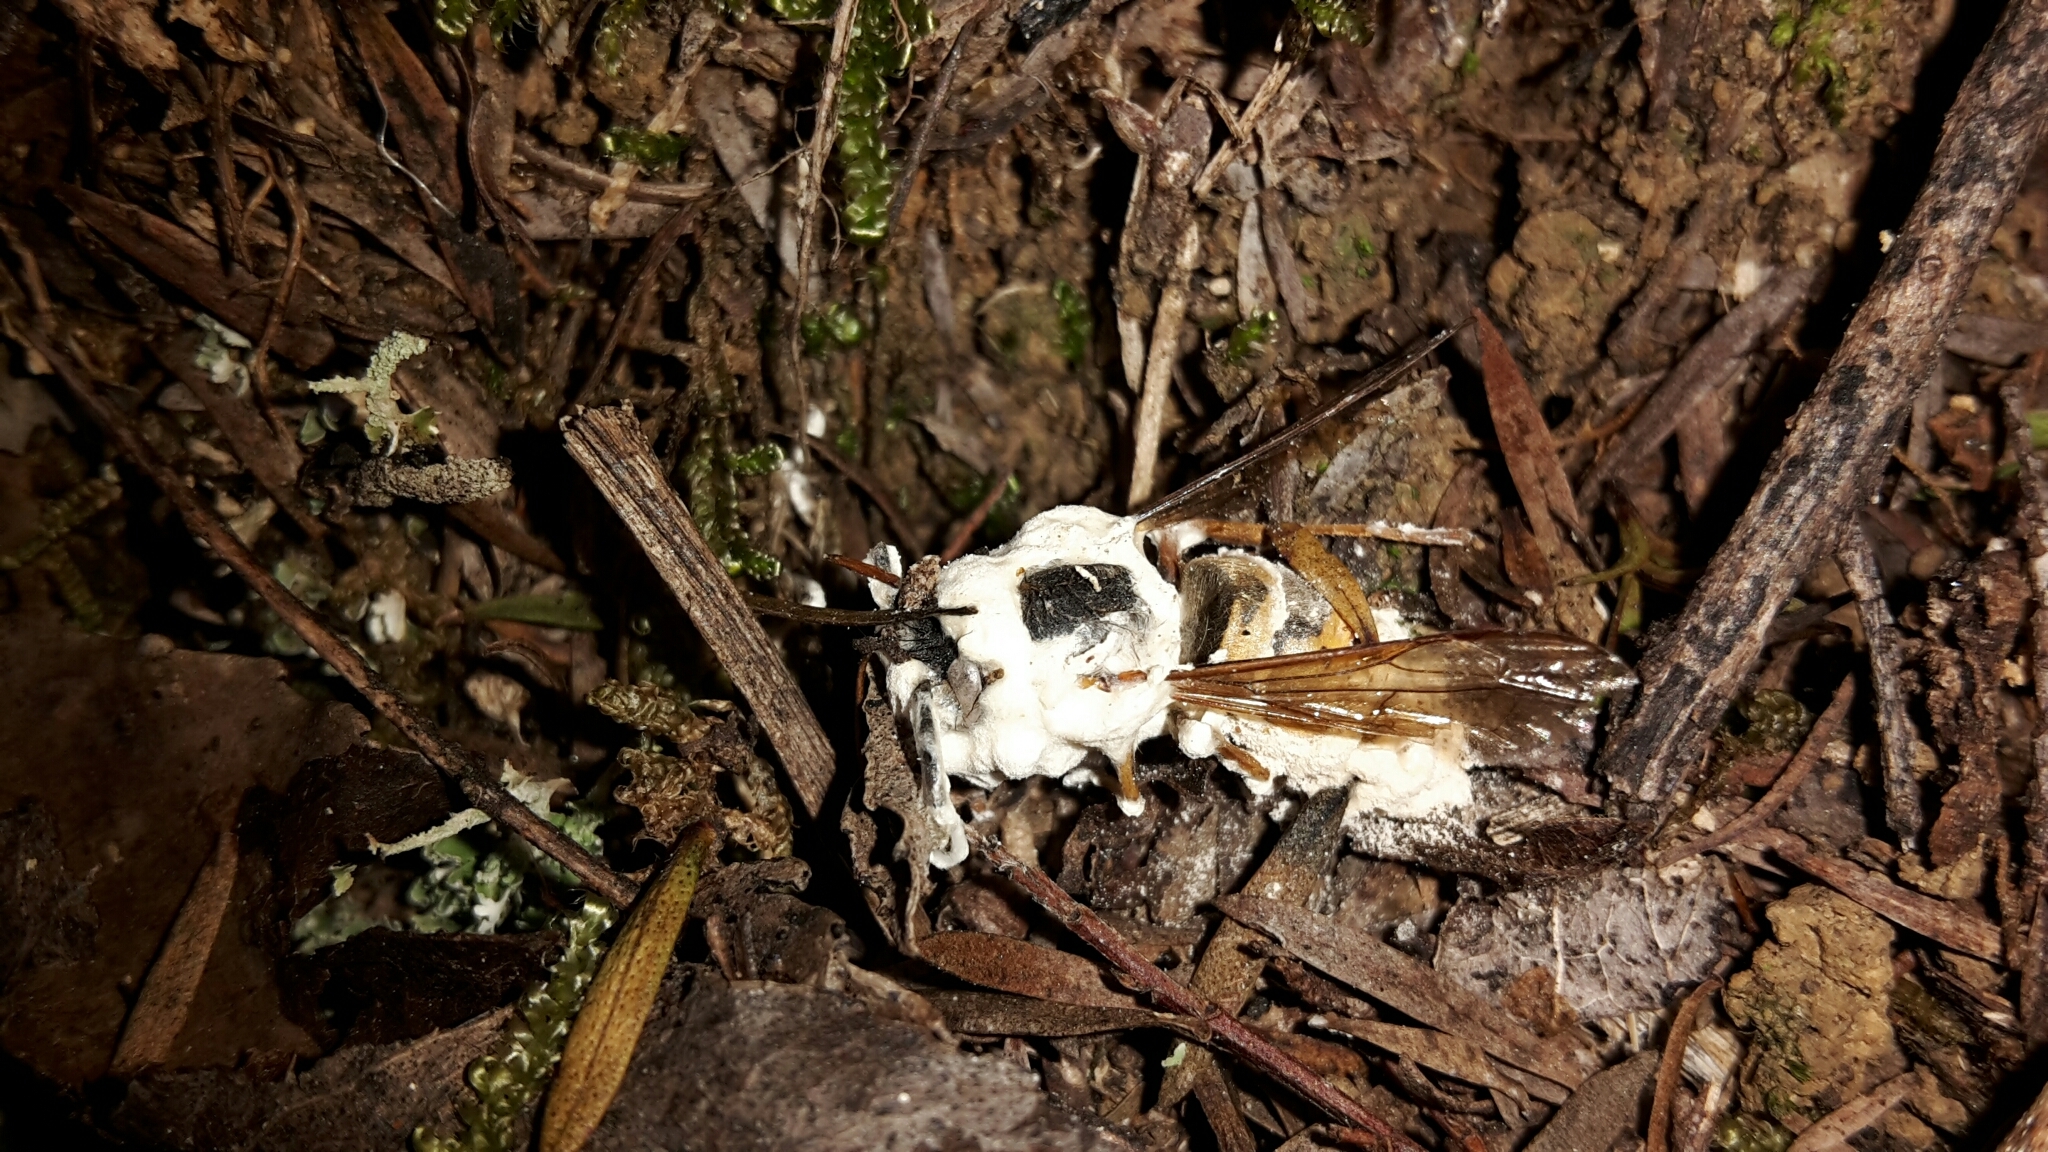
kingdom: Fungi
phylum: Ascomycota
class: Sordariomycetes
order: Hypocreales
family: Cordycipitaceae
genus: Beauveria
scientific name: Beauveria bassiana
